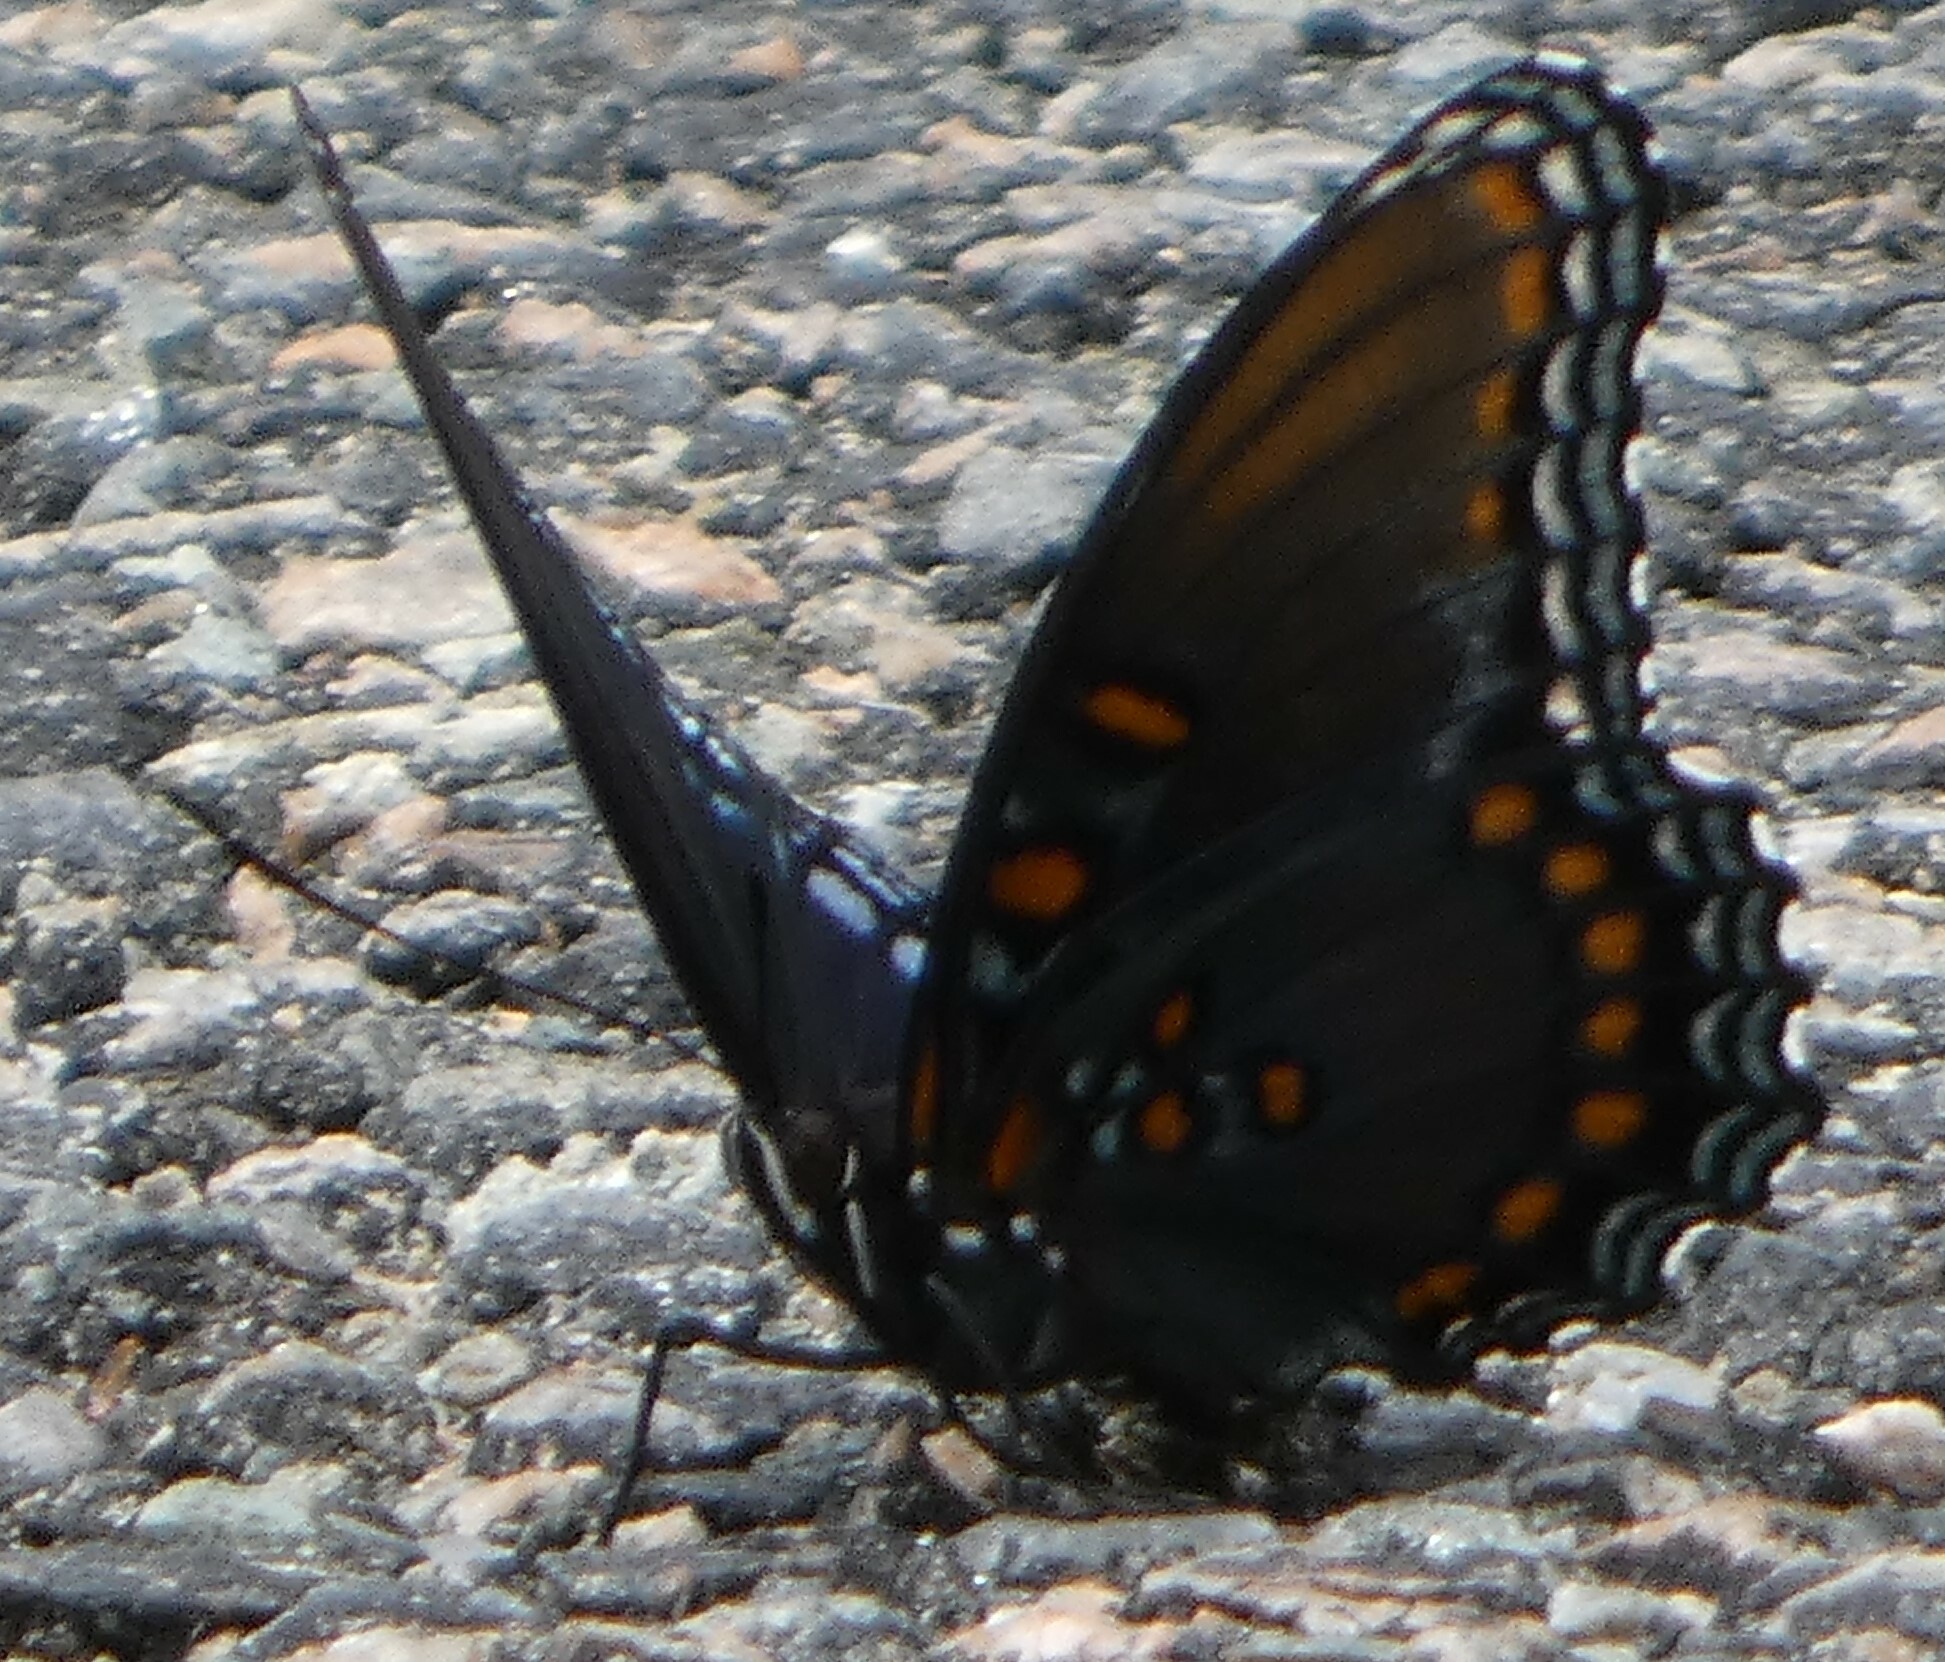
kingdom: Animalia
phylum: Arthropoda
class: Insecta
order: Lepidoptera
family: Nymphalidae
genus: Limenitis
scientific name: Limenitis astyanax
